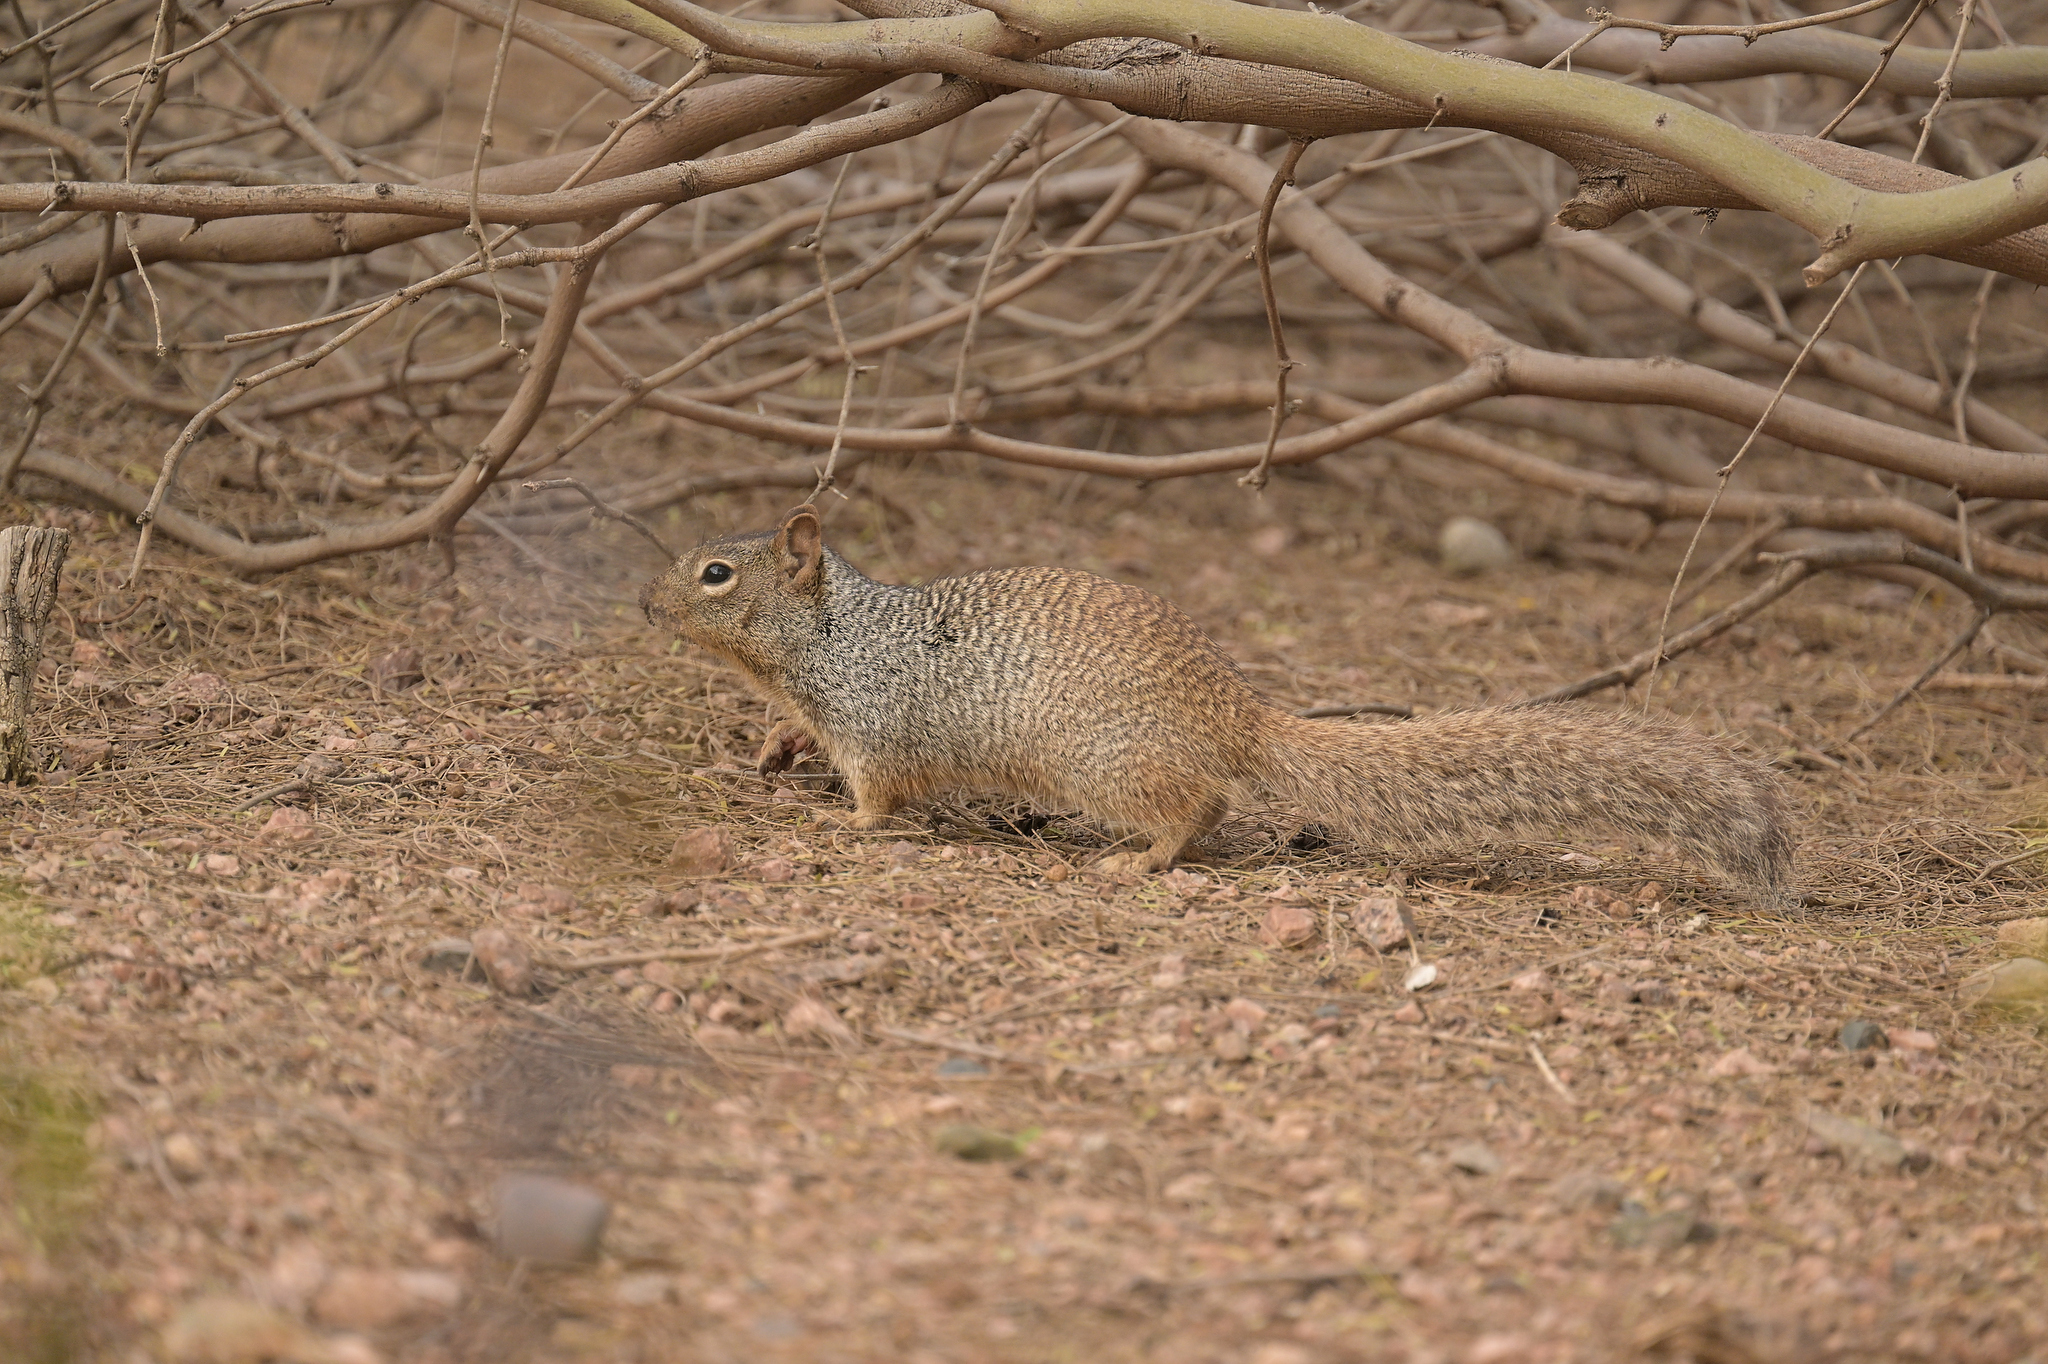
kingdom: Animalia
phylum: Chordata
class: Mammalia
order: Rodentia
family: Sciuridae
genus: Otospermophilus
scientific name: Otospermophilus variegatus
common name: Rock squirrel
